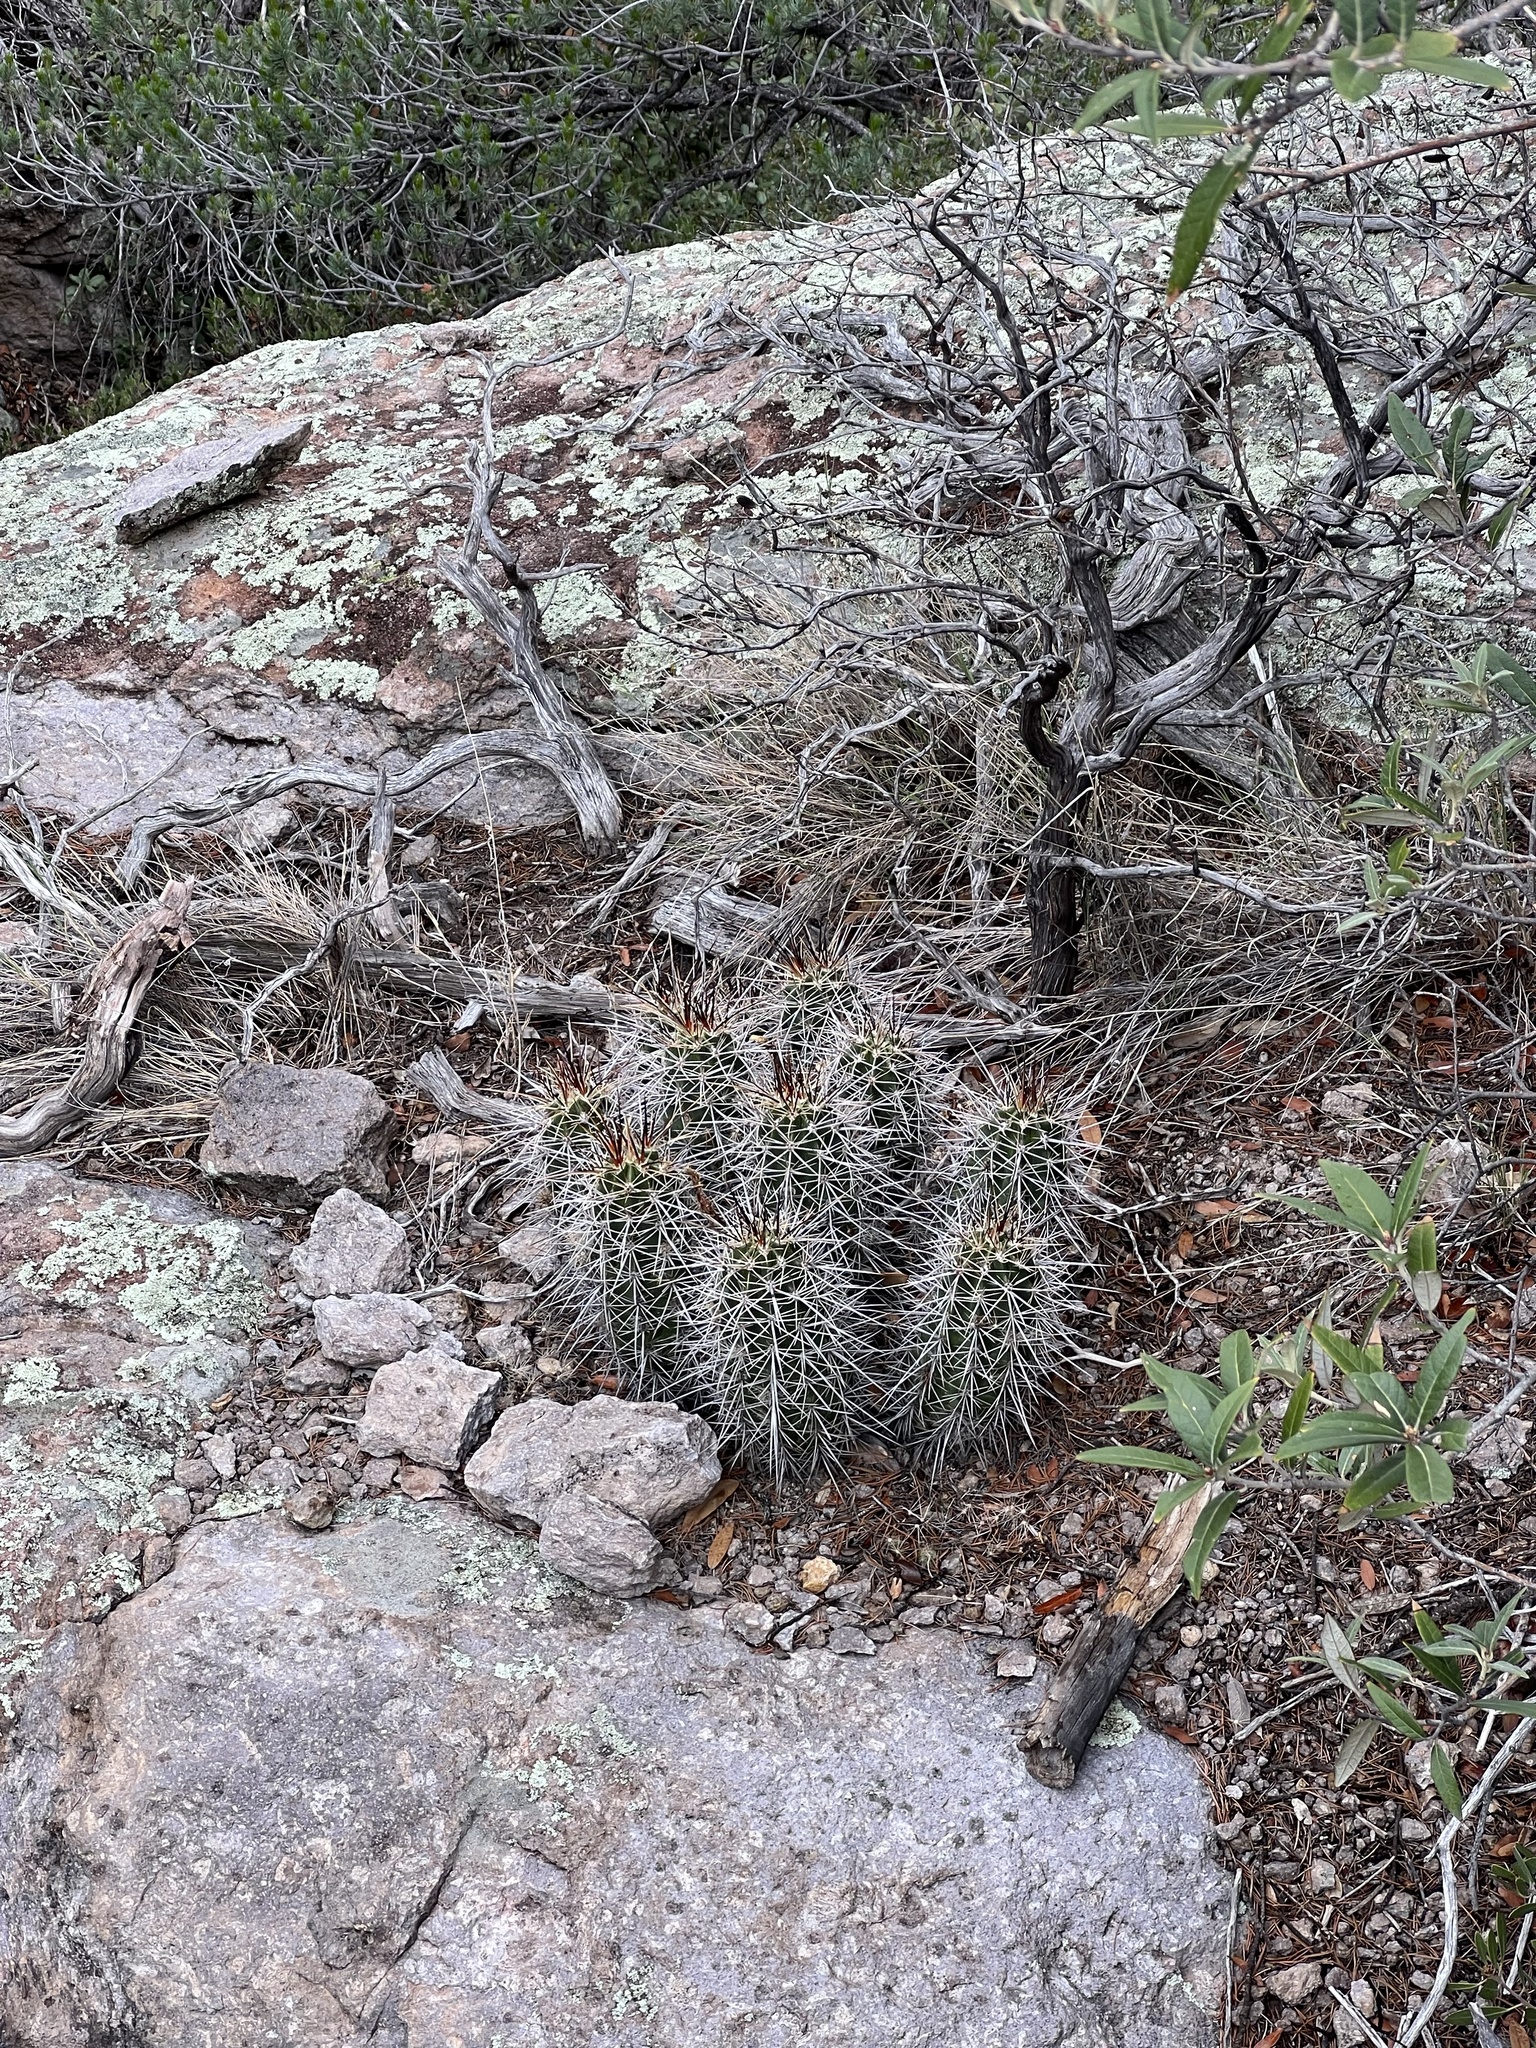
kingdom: Plantae
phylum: Tracheophyta
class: Magnoliopsida
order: Caryophyllales
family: Cactaceae
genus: Echinocereus
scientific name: Echinocereus coccineus
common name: Scarlet hedgehog cactus
